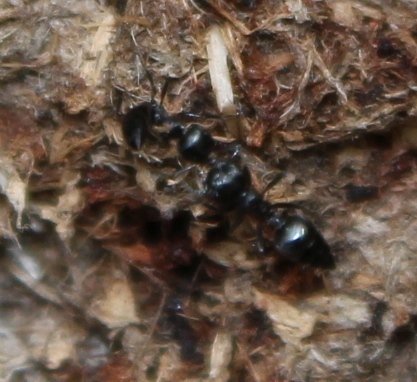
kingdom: Animalia
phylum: Arthropoda
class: Insecta
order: Hymenoptera
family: Formicidae
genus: Crematogaster
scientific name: Crematogaster peringueyi
